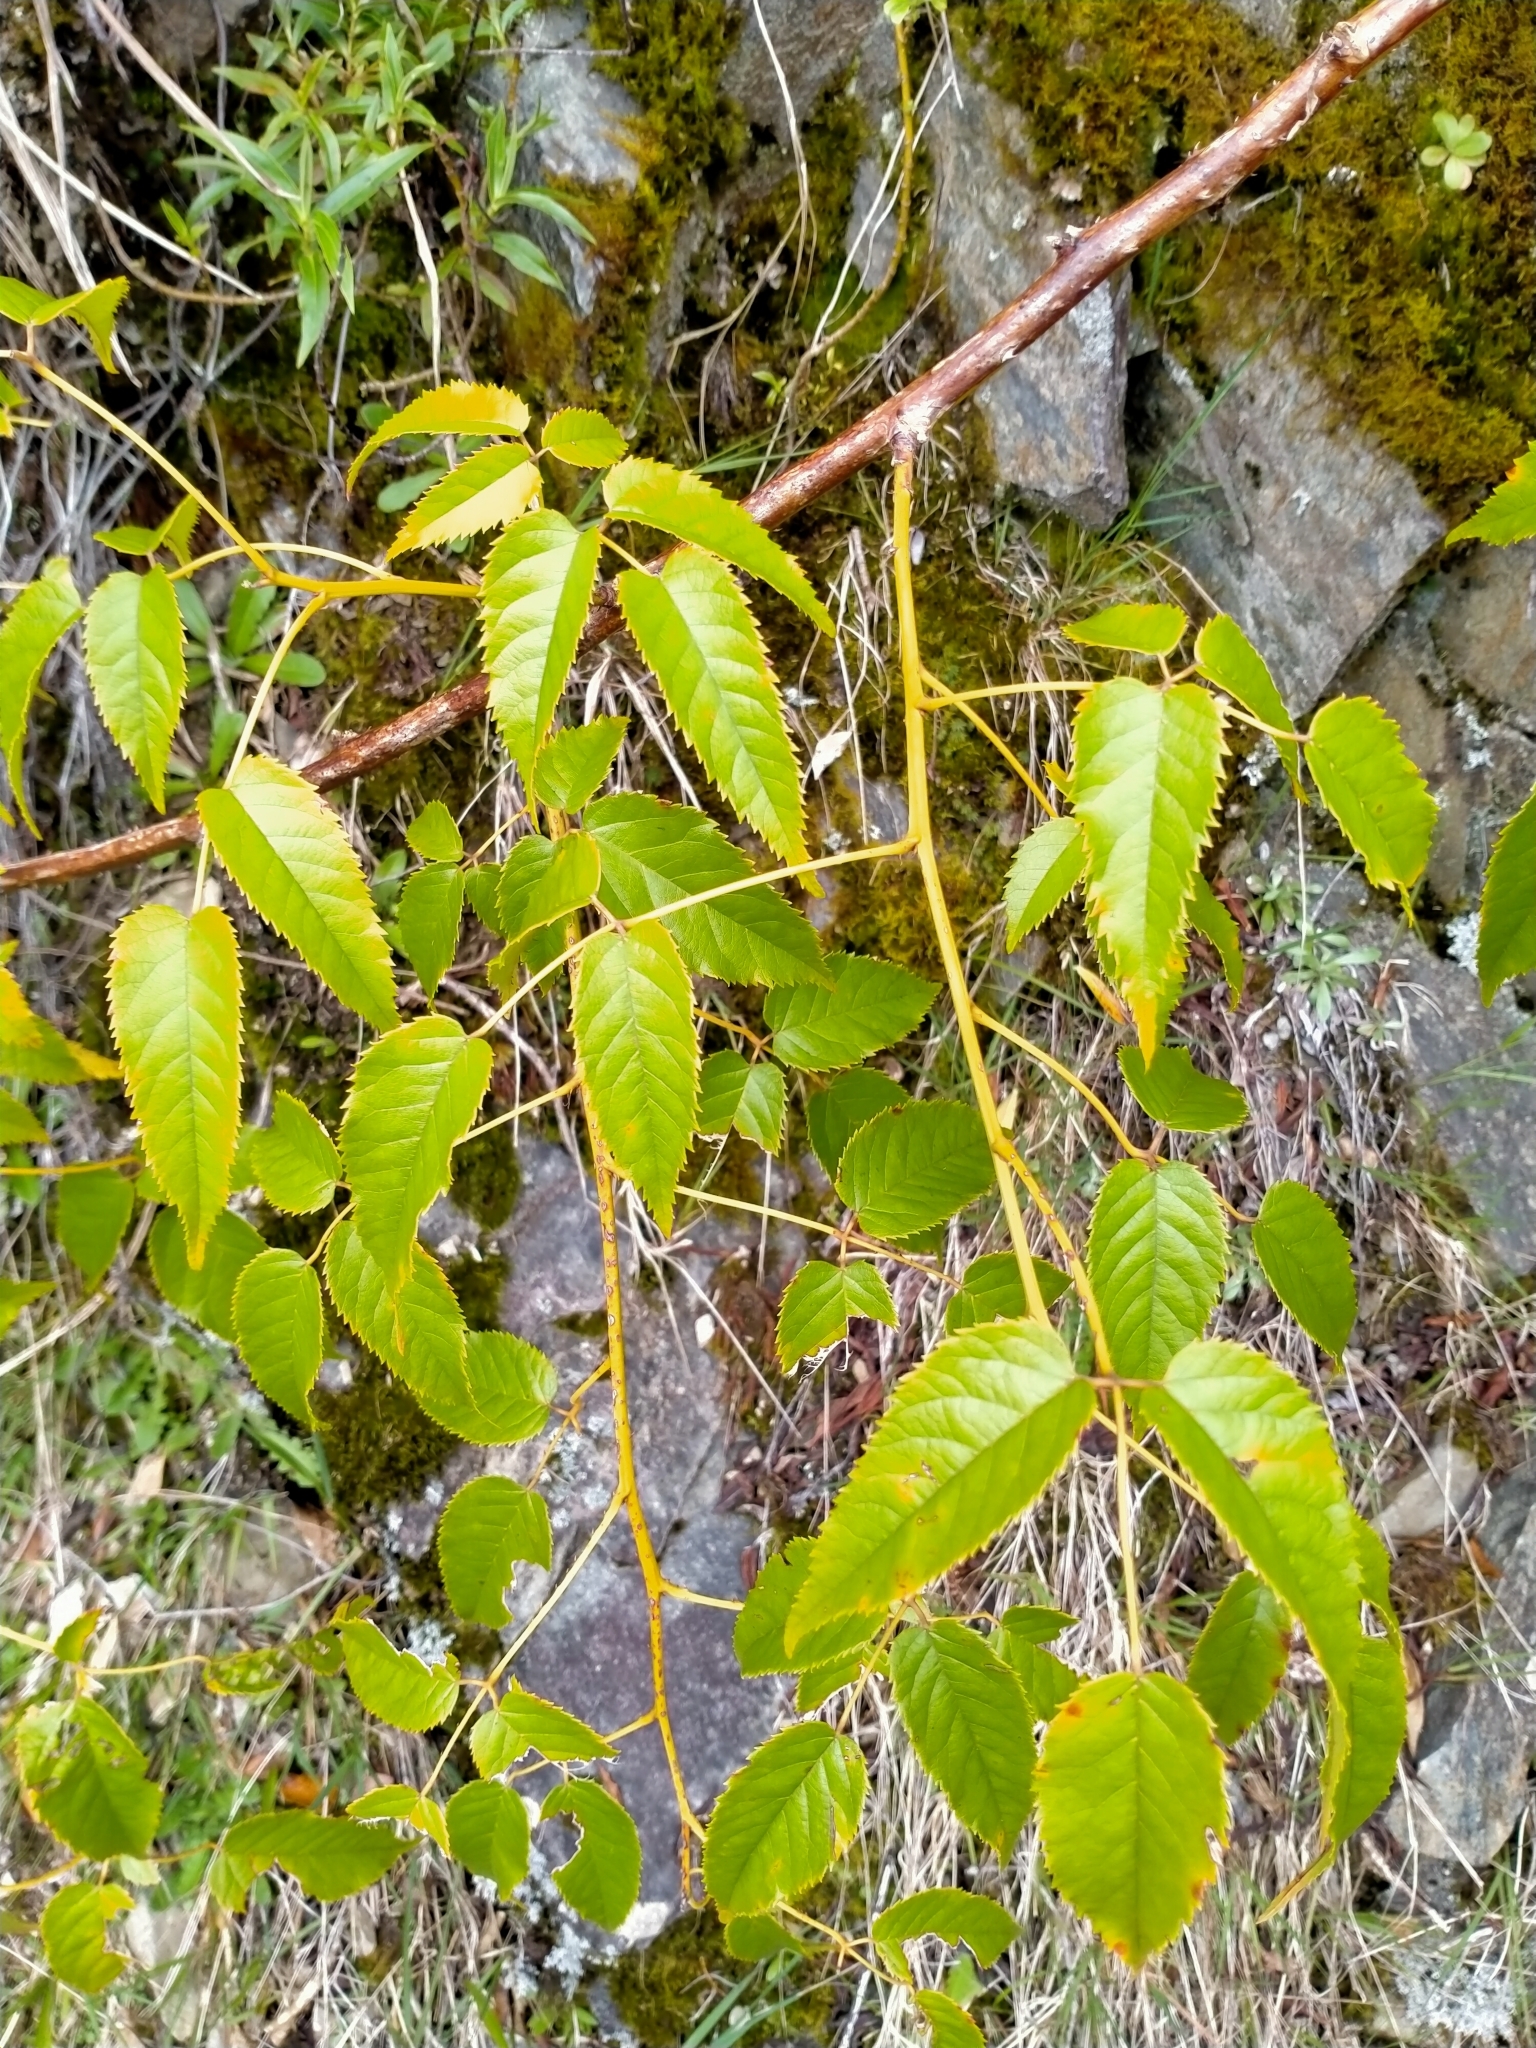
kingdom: Plantae
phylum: Tracheophyta
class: Magnoliopsida
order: Rosales
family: Rosaceae
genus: Rubus
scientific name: Rubus cissoides
